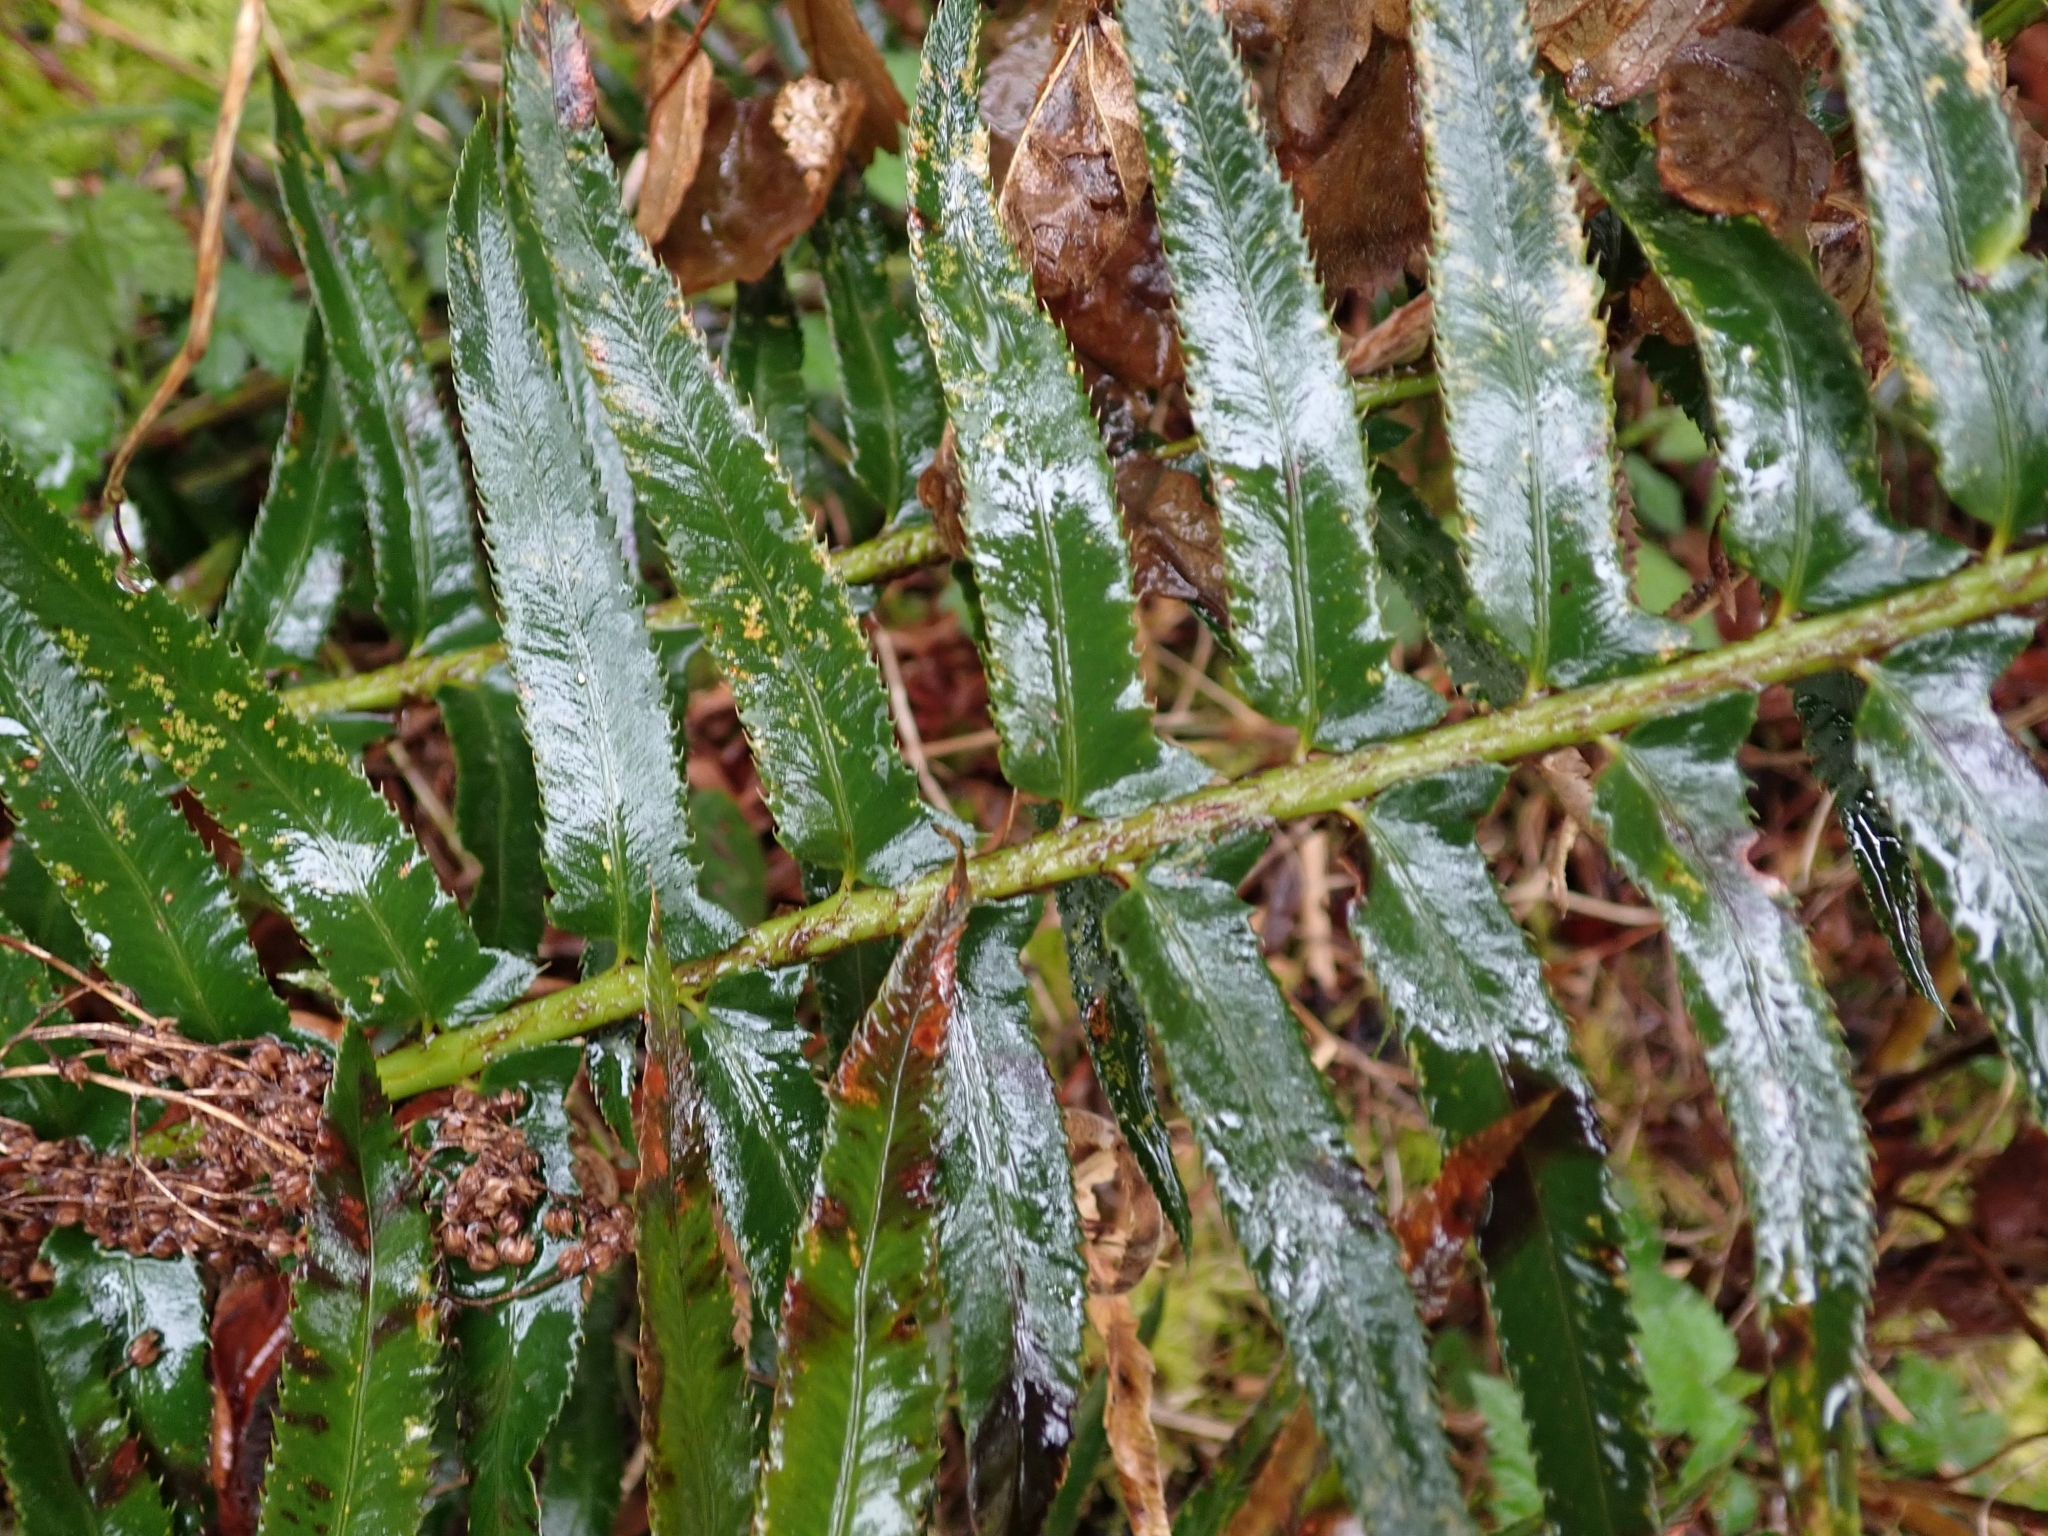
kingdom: Plantae
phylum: Tracheophyta
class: Polypodiopsida
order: Polypodiales
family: Dryopteridaceae
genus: Polystichum
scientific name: Polystichum munitum
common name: Western sword-fern
